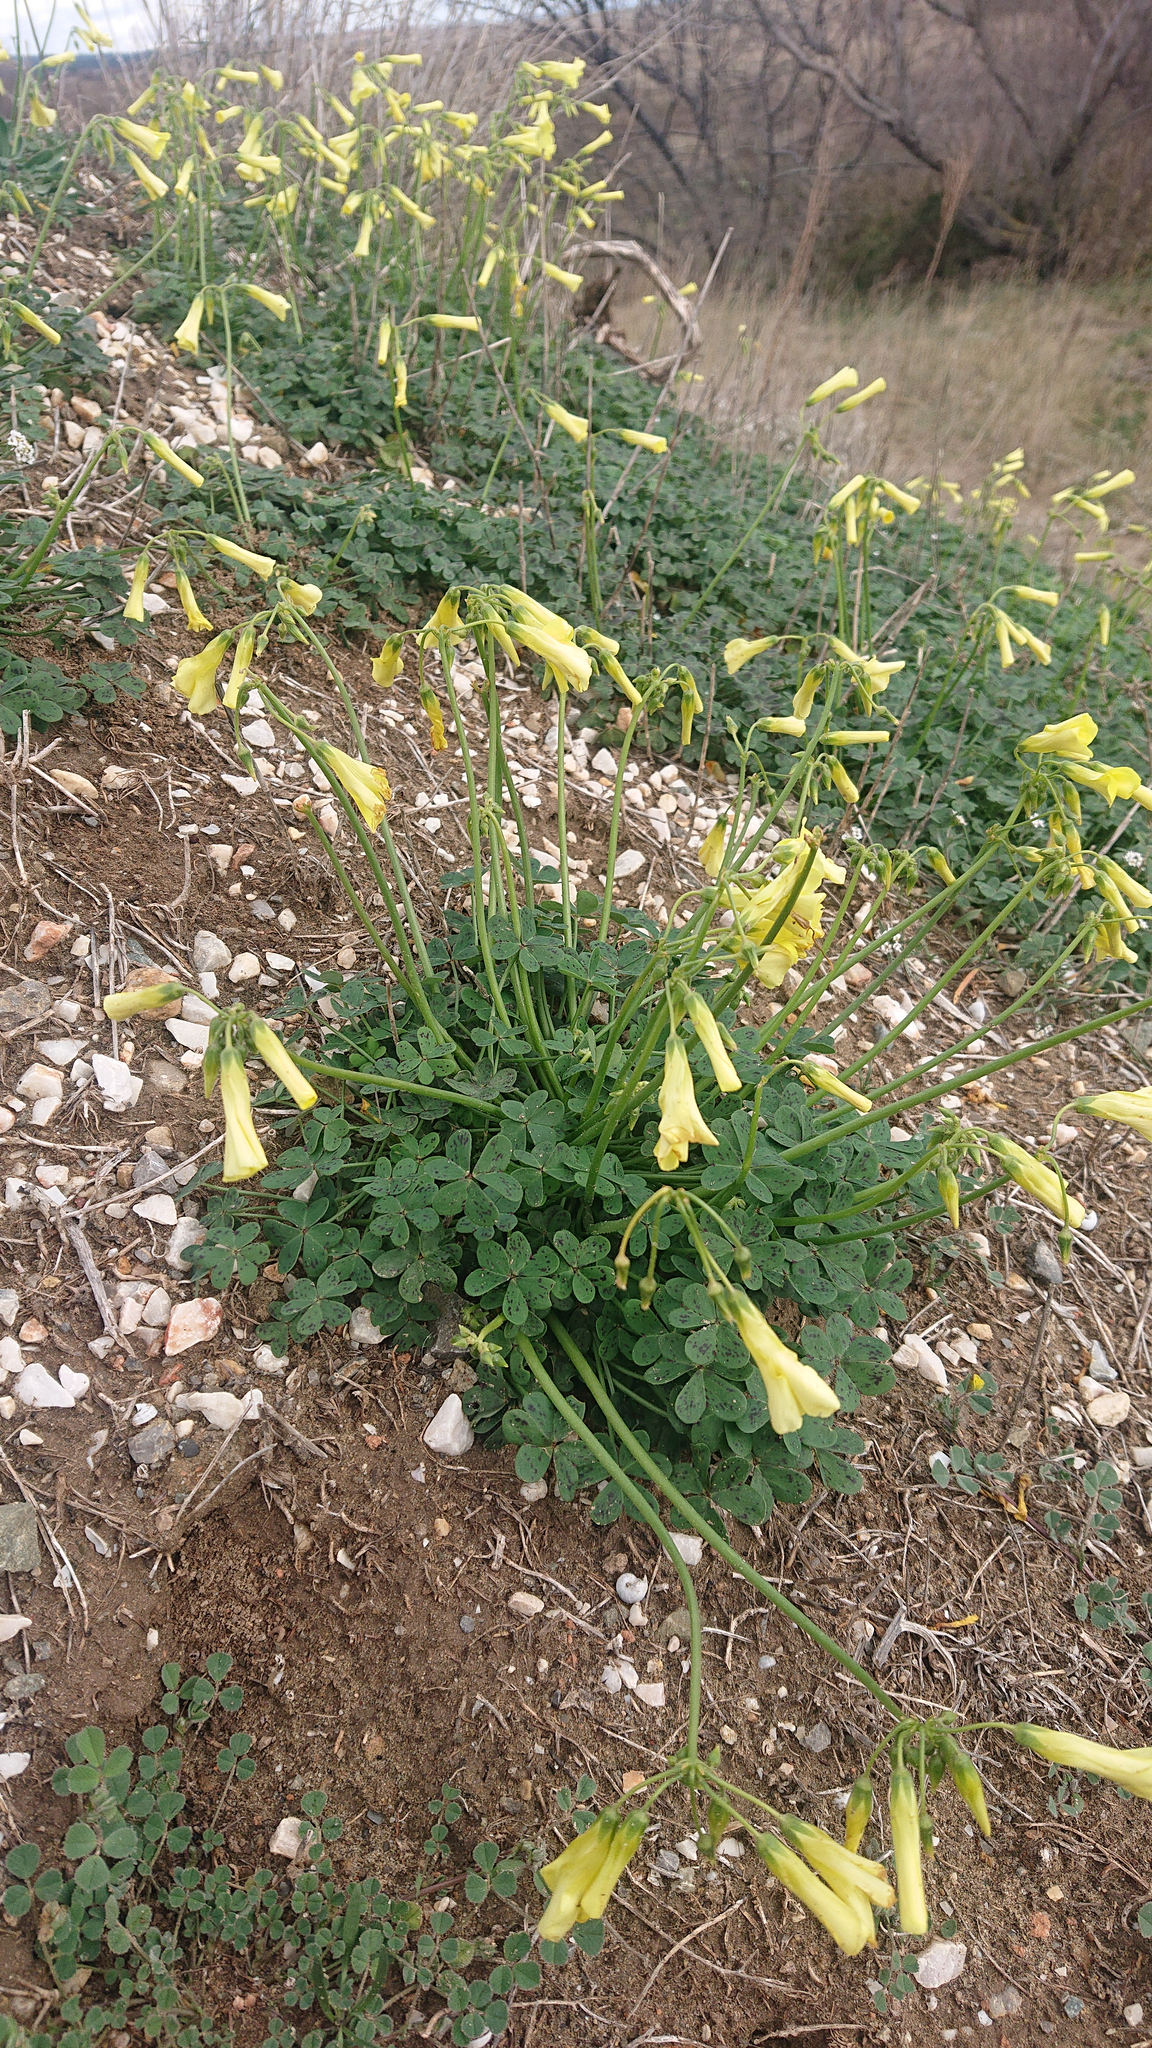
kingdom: Plantae
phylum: Tracheophyta
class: Magnoliopsida
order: Oxalidales
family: Oxalidaceae
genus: Oxalis
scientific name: Oxalis pes-caprae
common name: Bermuda-buttercup
